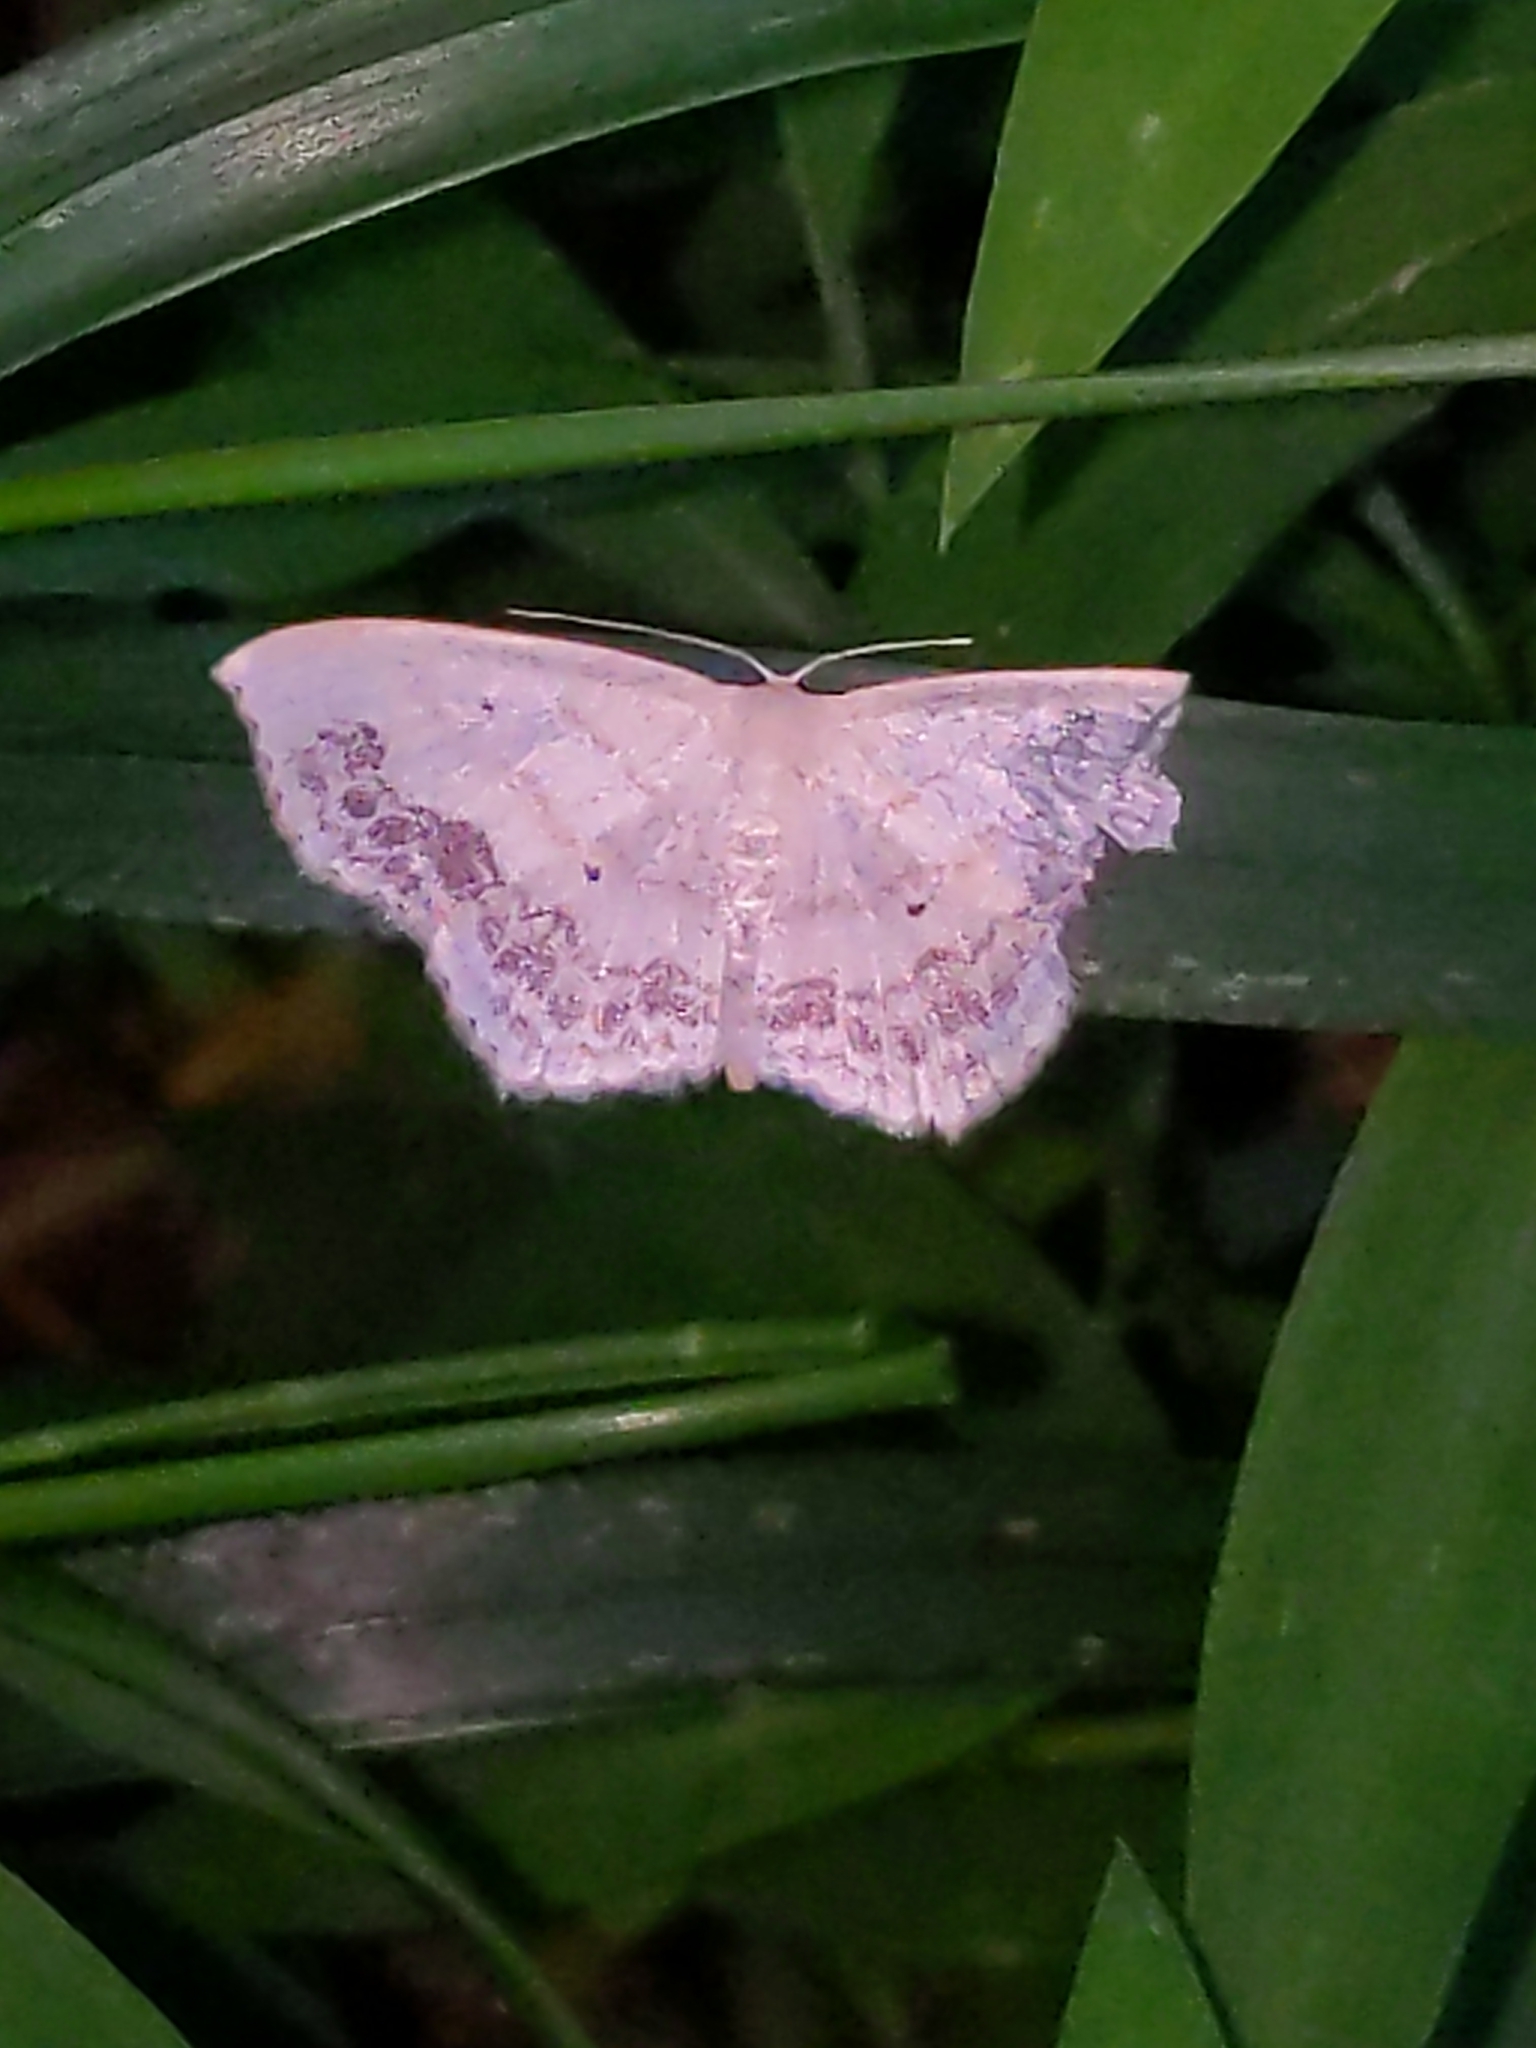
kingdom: Animalia
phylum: Arthropoda
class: Insecta
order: Lepidoptera
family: Geometridae
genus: Scopula
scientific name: Scopula limboundata
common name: Large lace border
